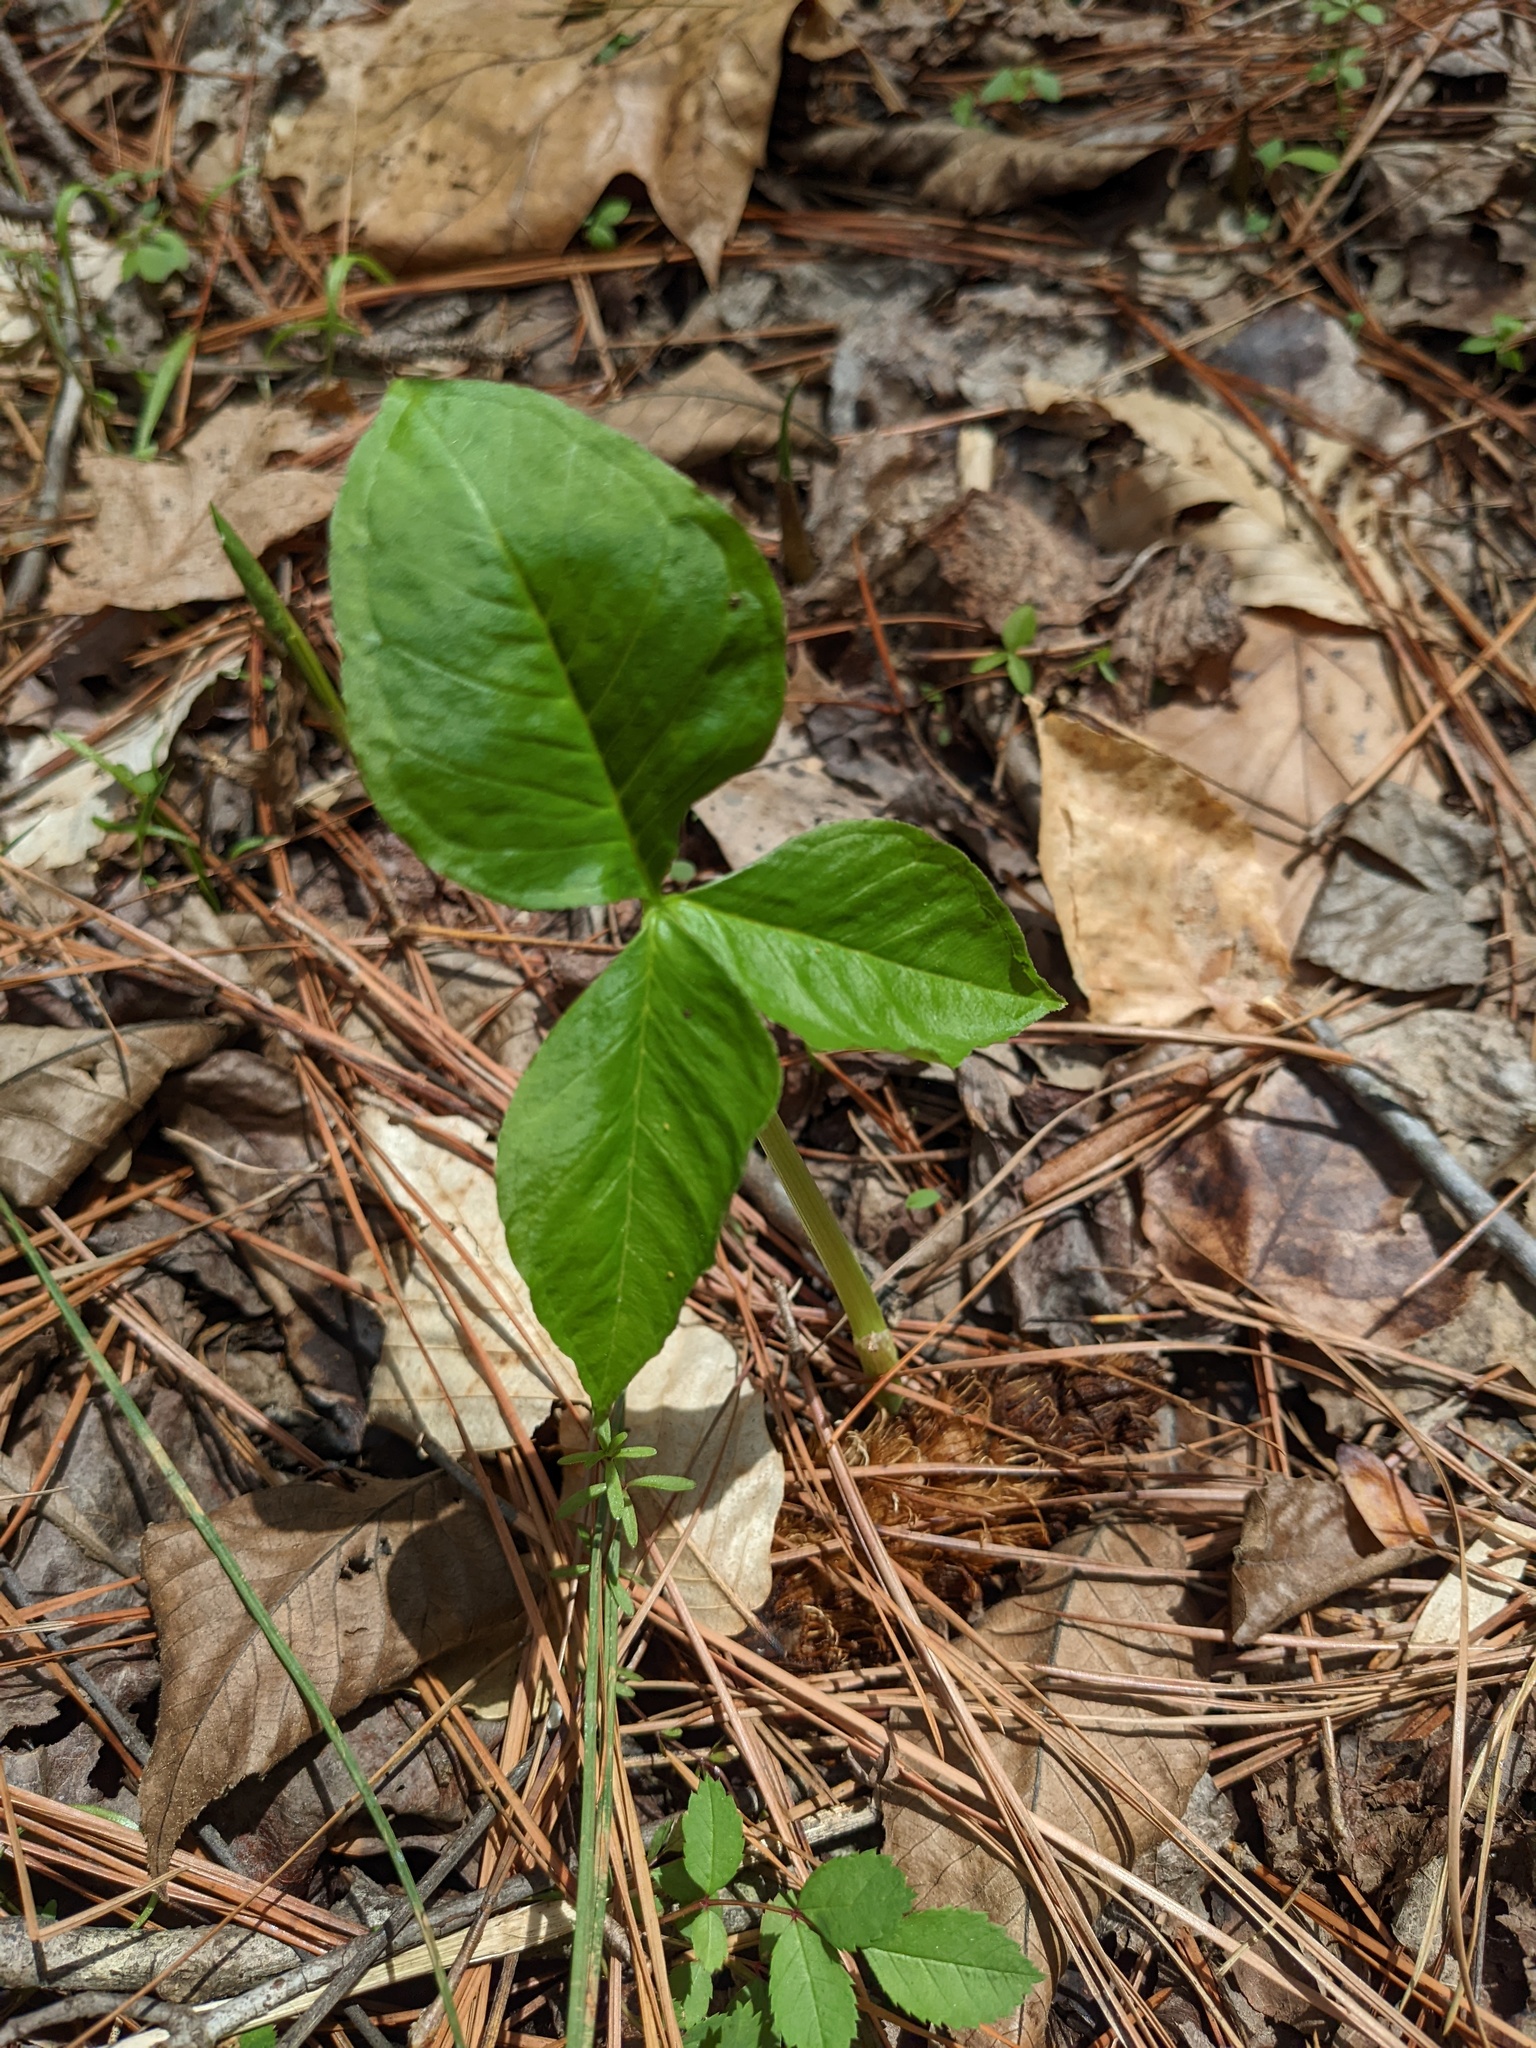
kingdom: Plantae
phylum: Tracheophyta
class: Liliopsida
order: Alismatales
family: Araceae
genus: Arisaema
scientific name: Arisaema triphyllum
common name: Jack-in-the-pulpit
